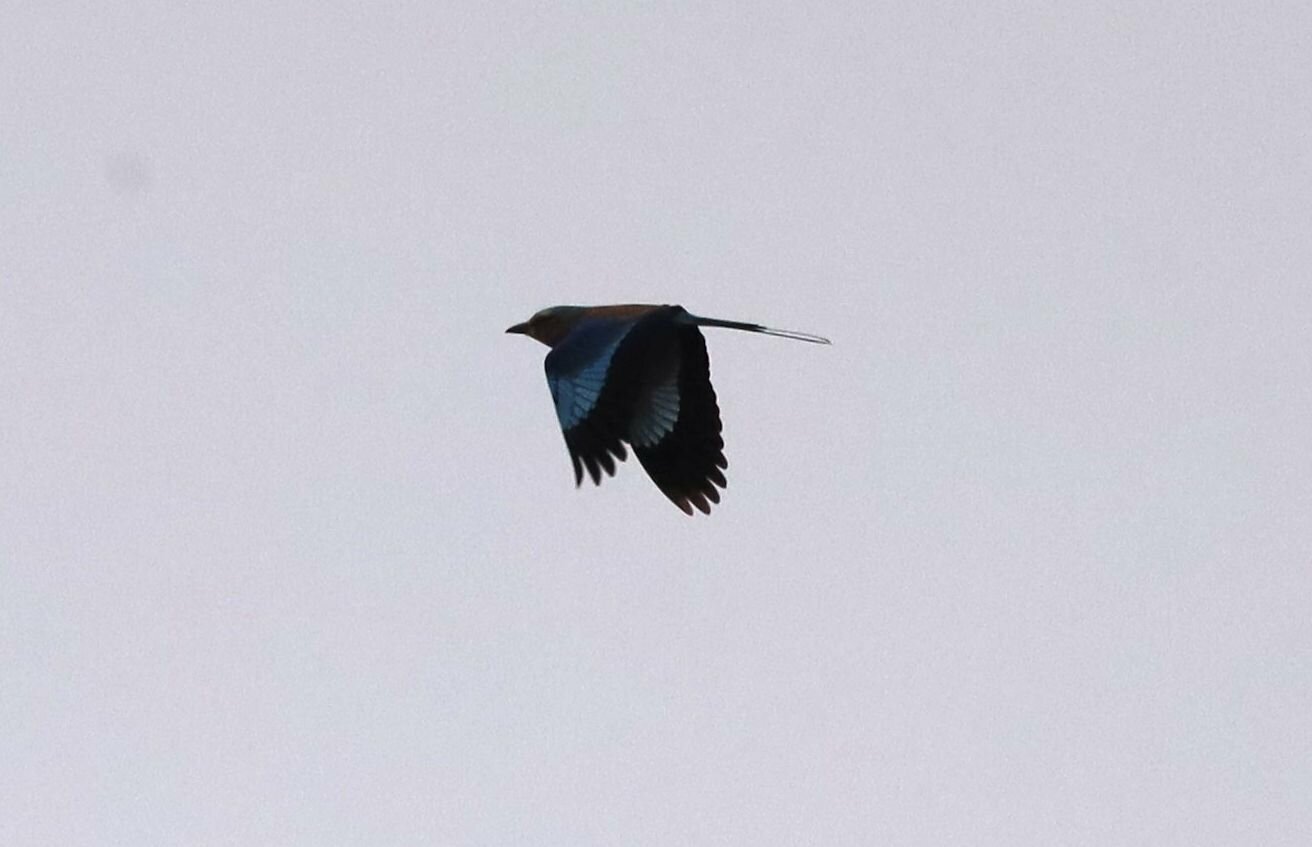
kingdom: Animalia
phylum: Chordata
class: Aves
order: Coraciiformes
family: Coraciidae
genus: Coracias
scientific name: Coracias caudatus
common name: Lilac-breasted roller
